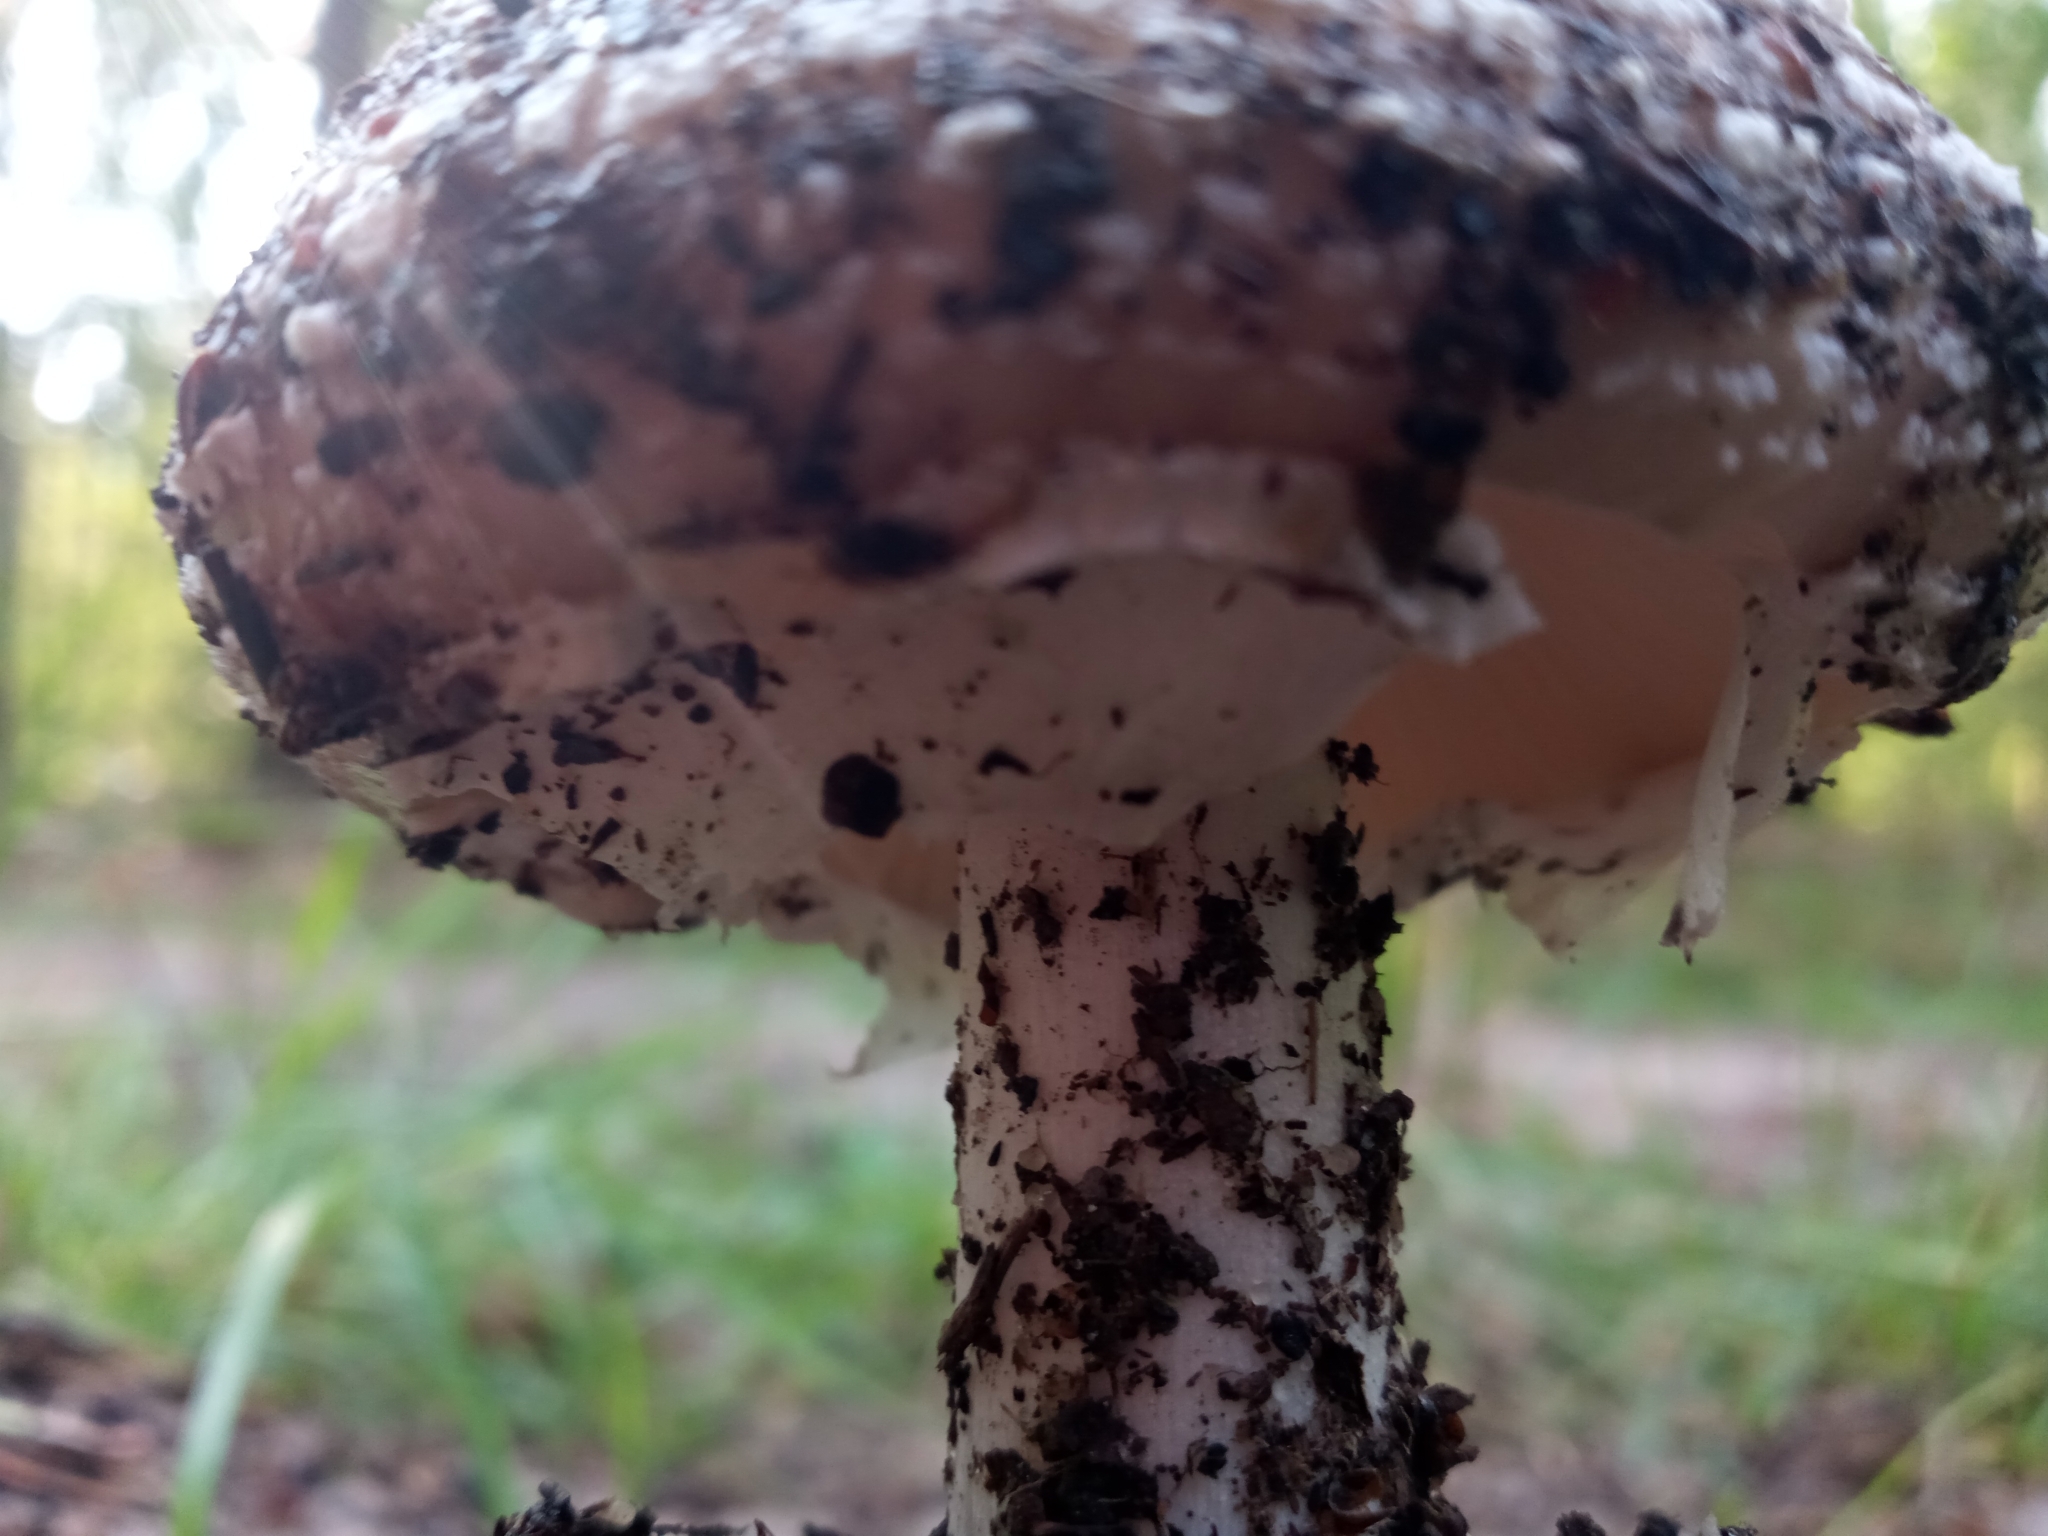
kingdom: Fungi
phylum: Basidiomycota
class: Agaricomycetes
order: Agaricales
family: Amanitaceae
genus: Amanita
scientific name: Amanita pantherina
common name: Panthercap
